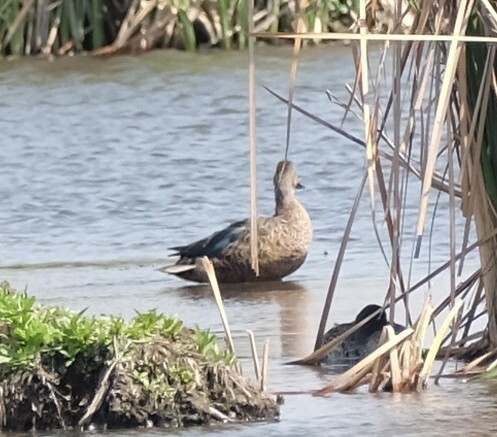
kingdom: Animalia
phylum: Chordata
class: Aves
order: Anseriformes
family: Anatidae
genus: Spatula
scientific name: Spatula smithii
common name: Cape shoveler
